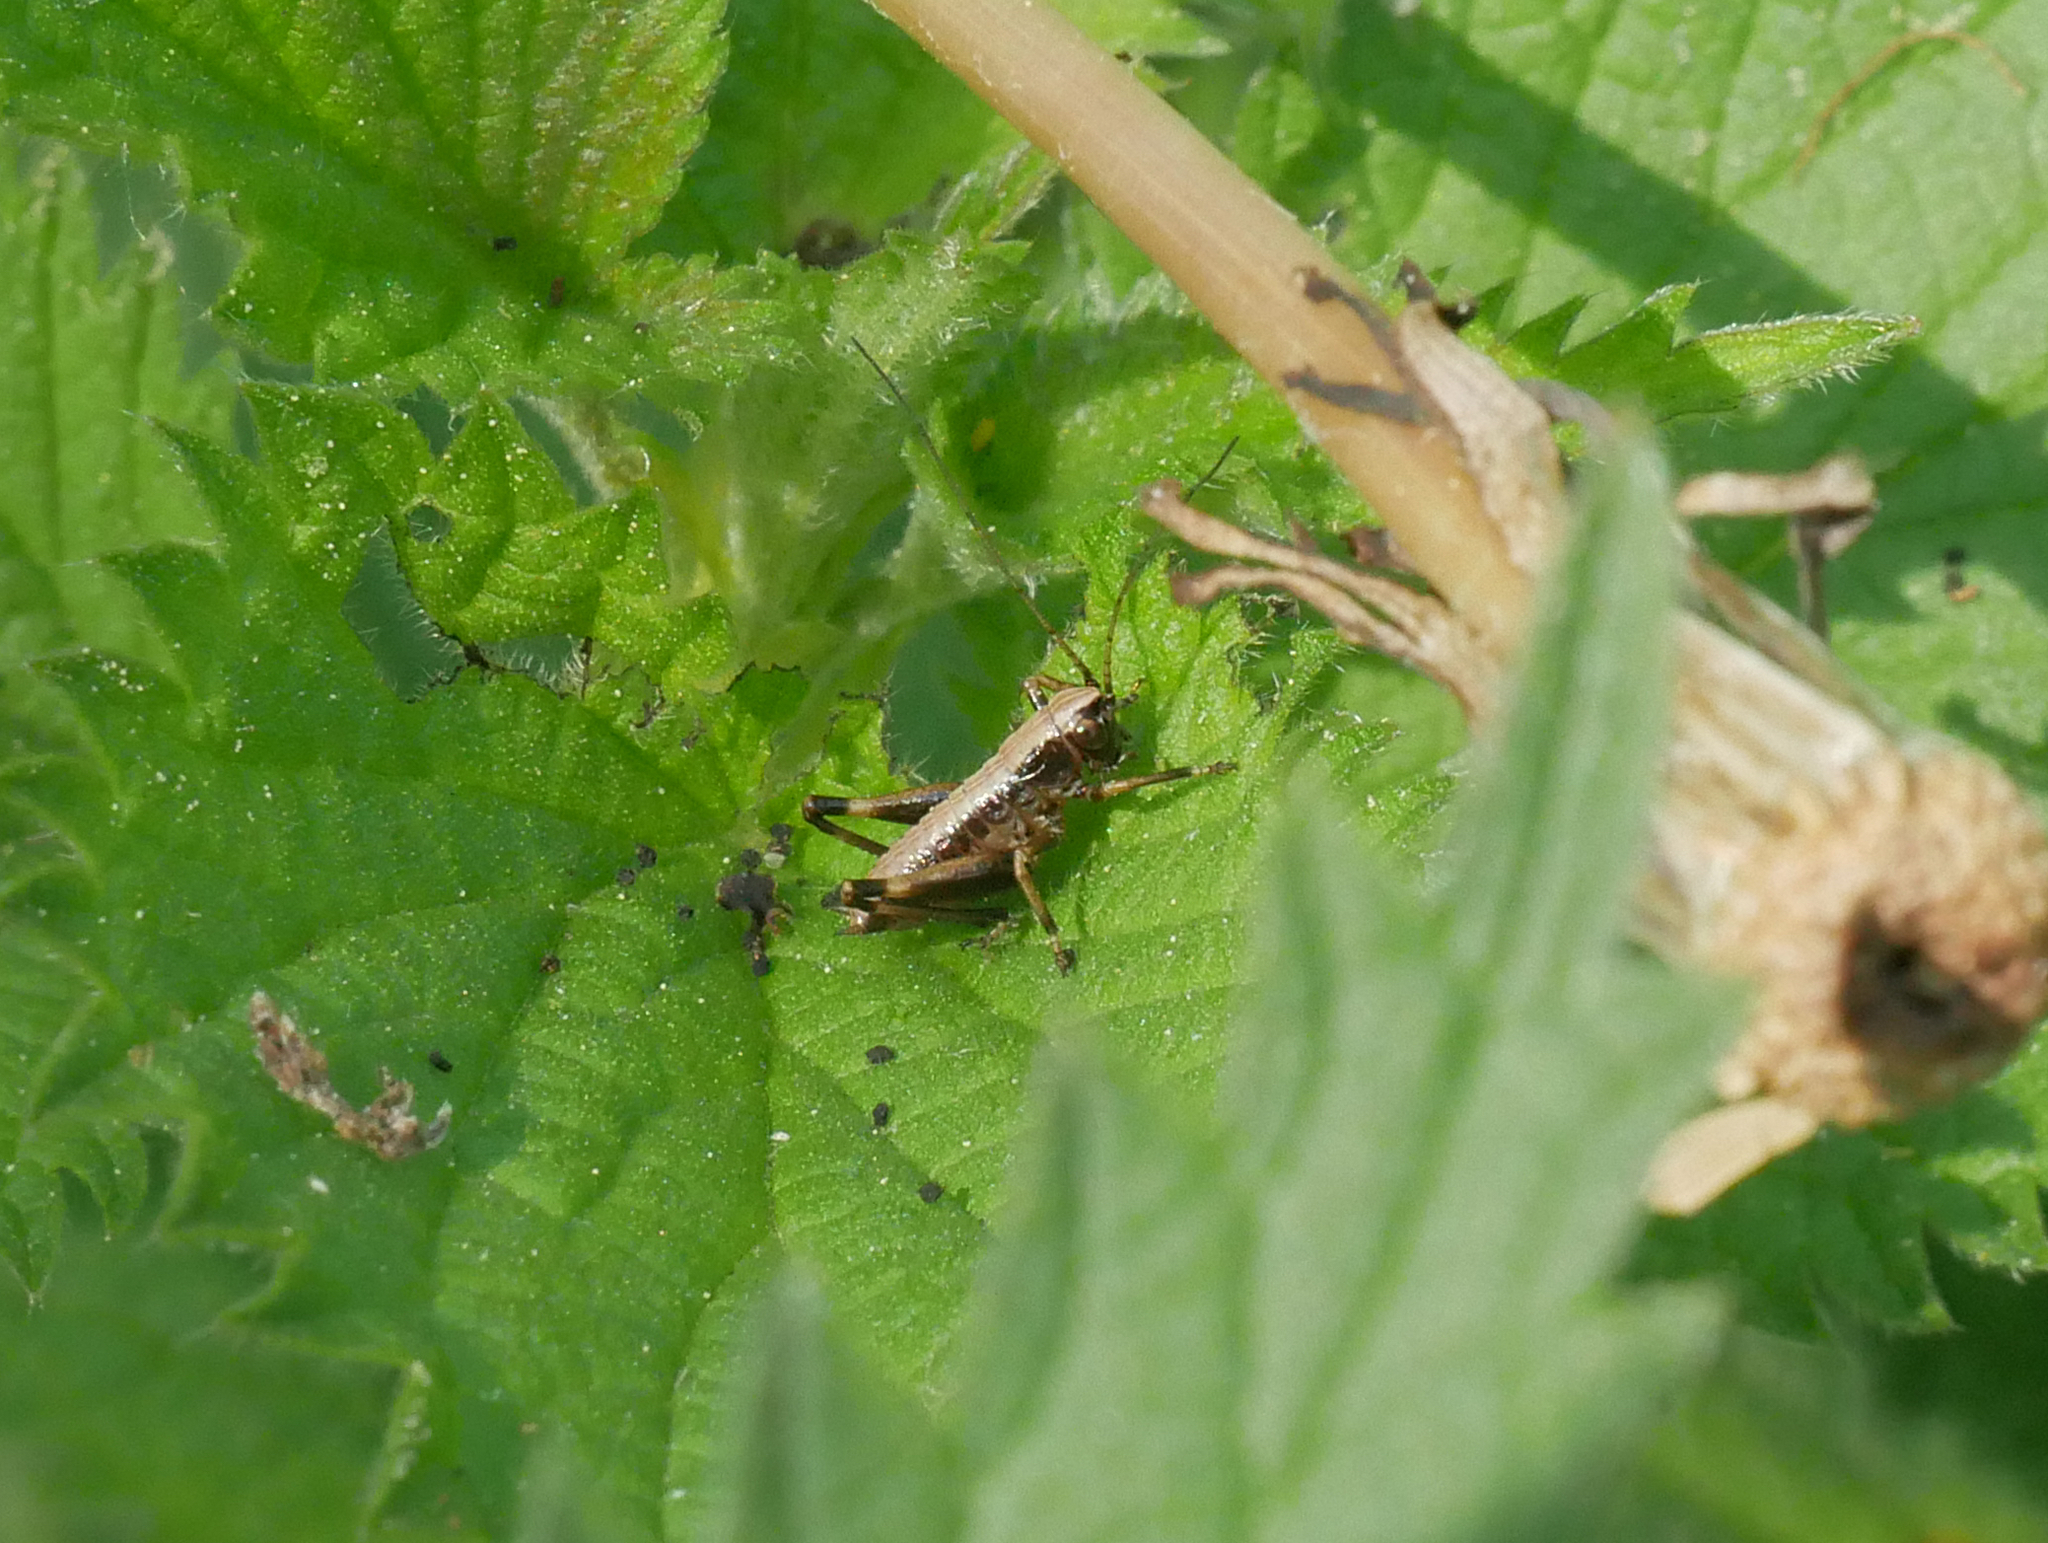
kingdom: Animalia
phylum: Arthropoda
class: Insecta
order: Orthoptera
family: Tettigoniidae
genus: Pholidoptera
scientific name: Pholidoptera griseoaptera
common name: Dark bush-cricket
